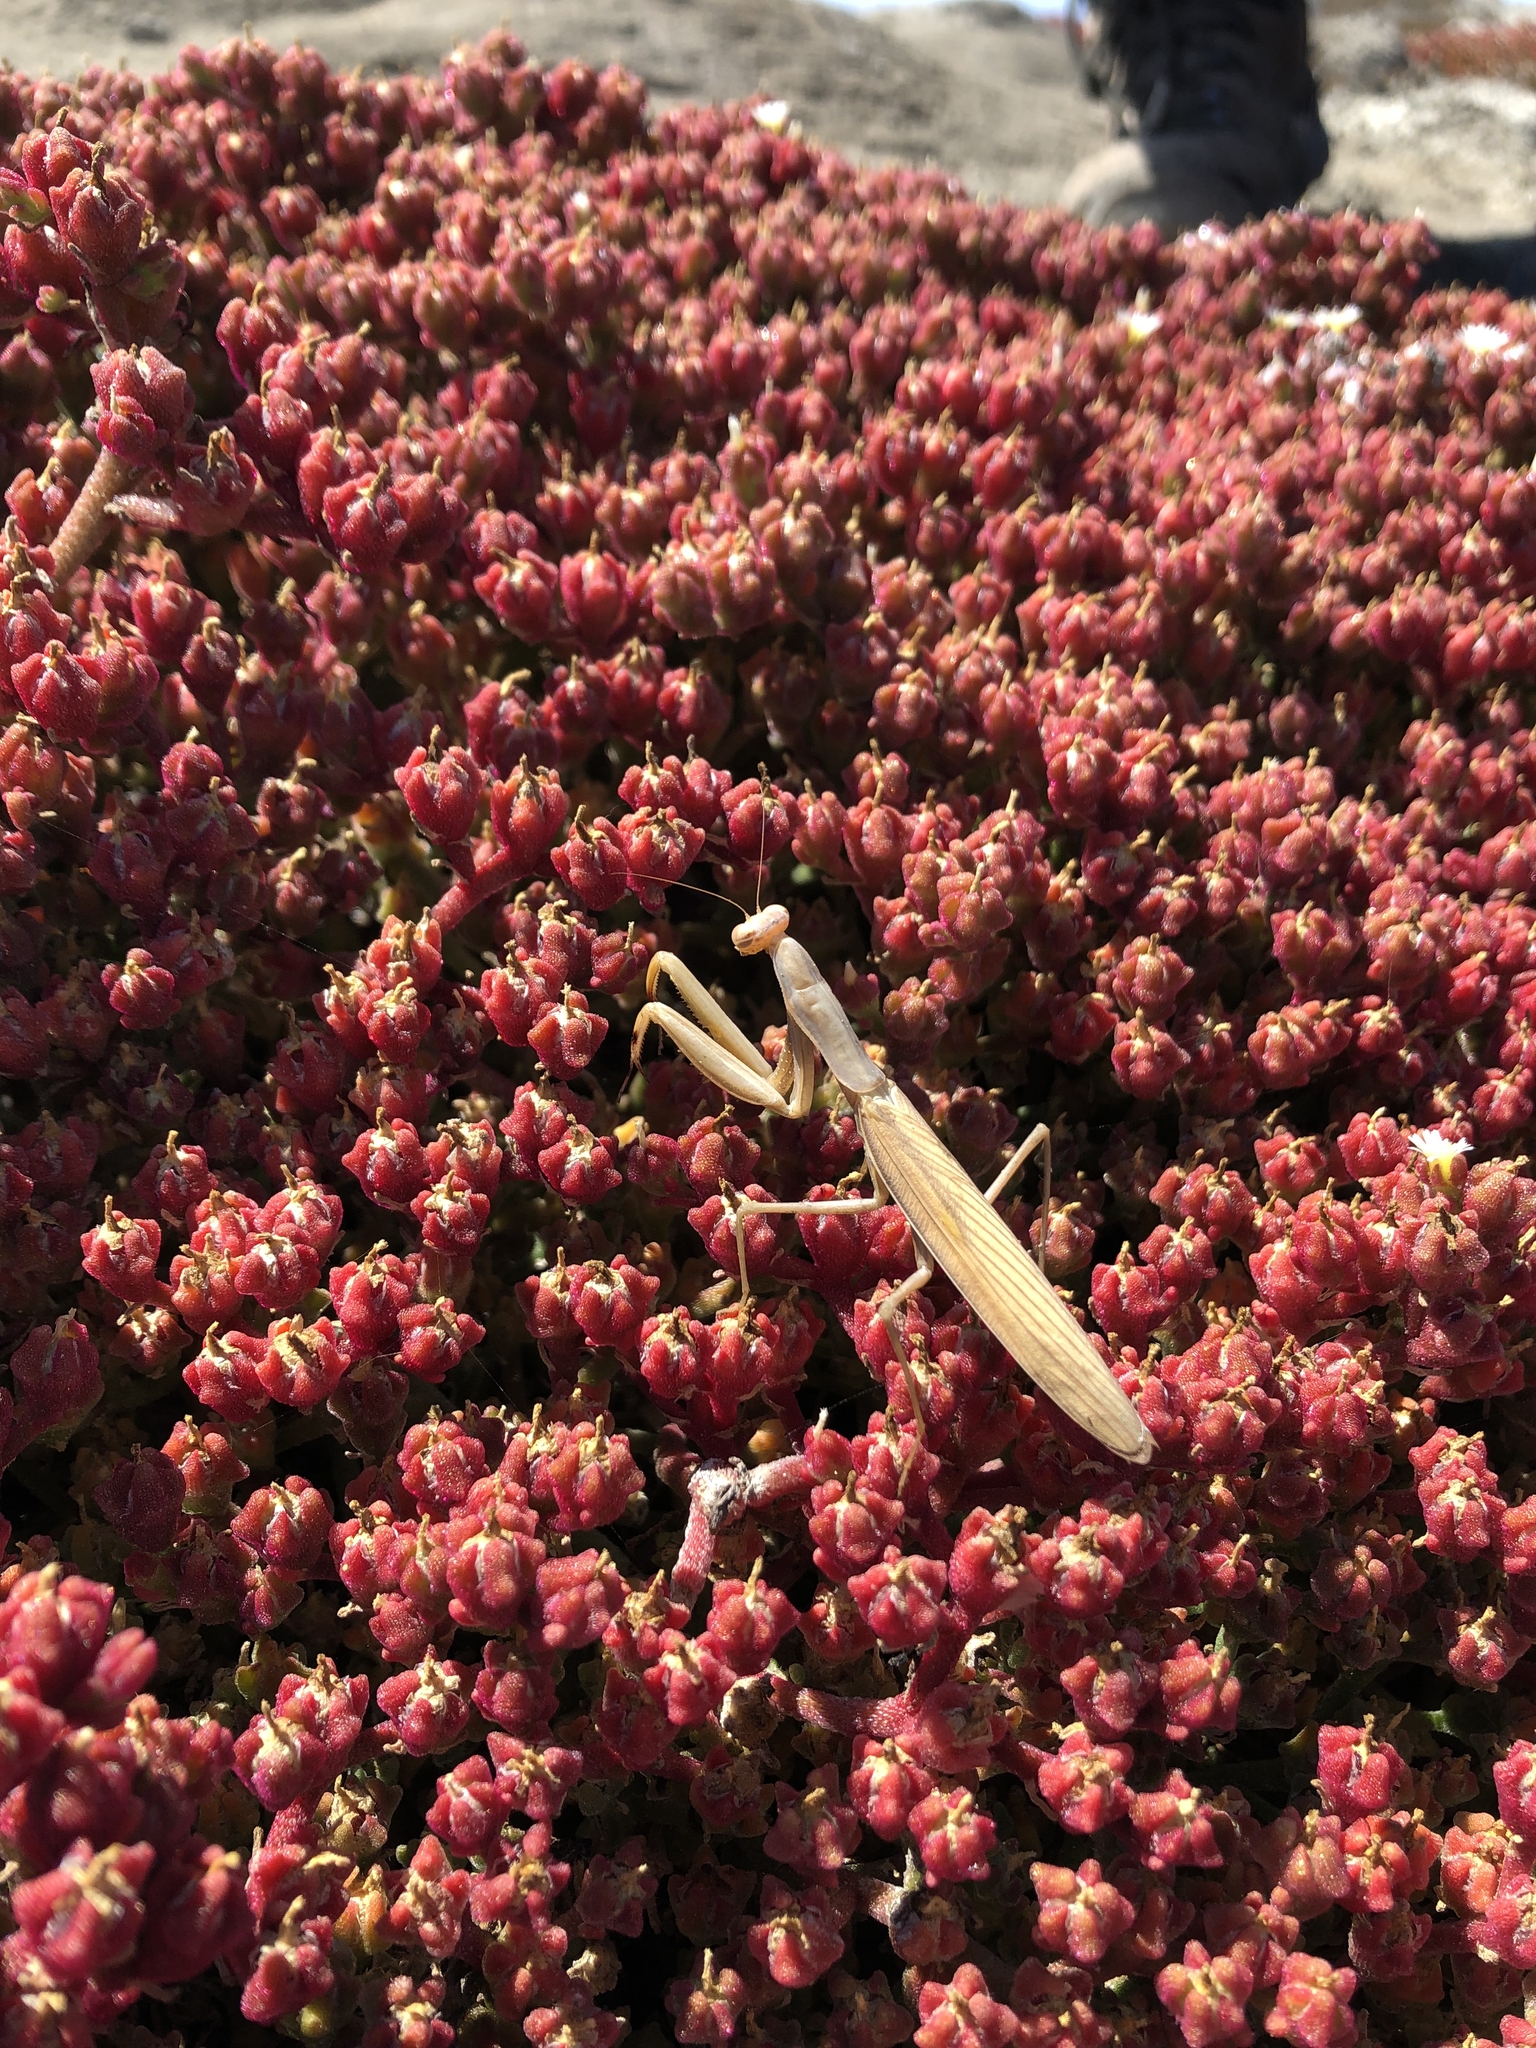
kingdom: Animalia
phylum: Arthropoda
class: Insecta
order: Mantodea
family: Mantidae
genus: Mantis
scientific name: Mantis religiosa
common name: Praying mantis
